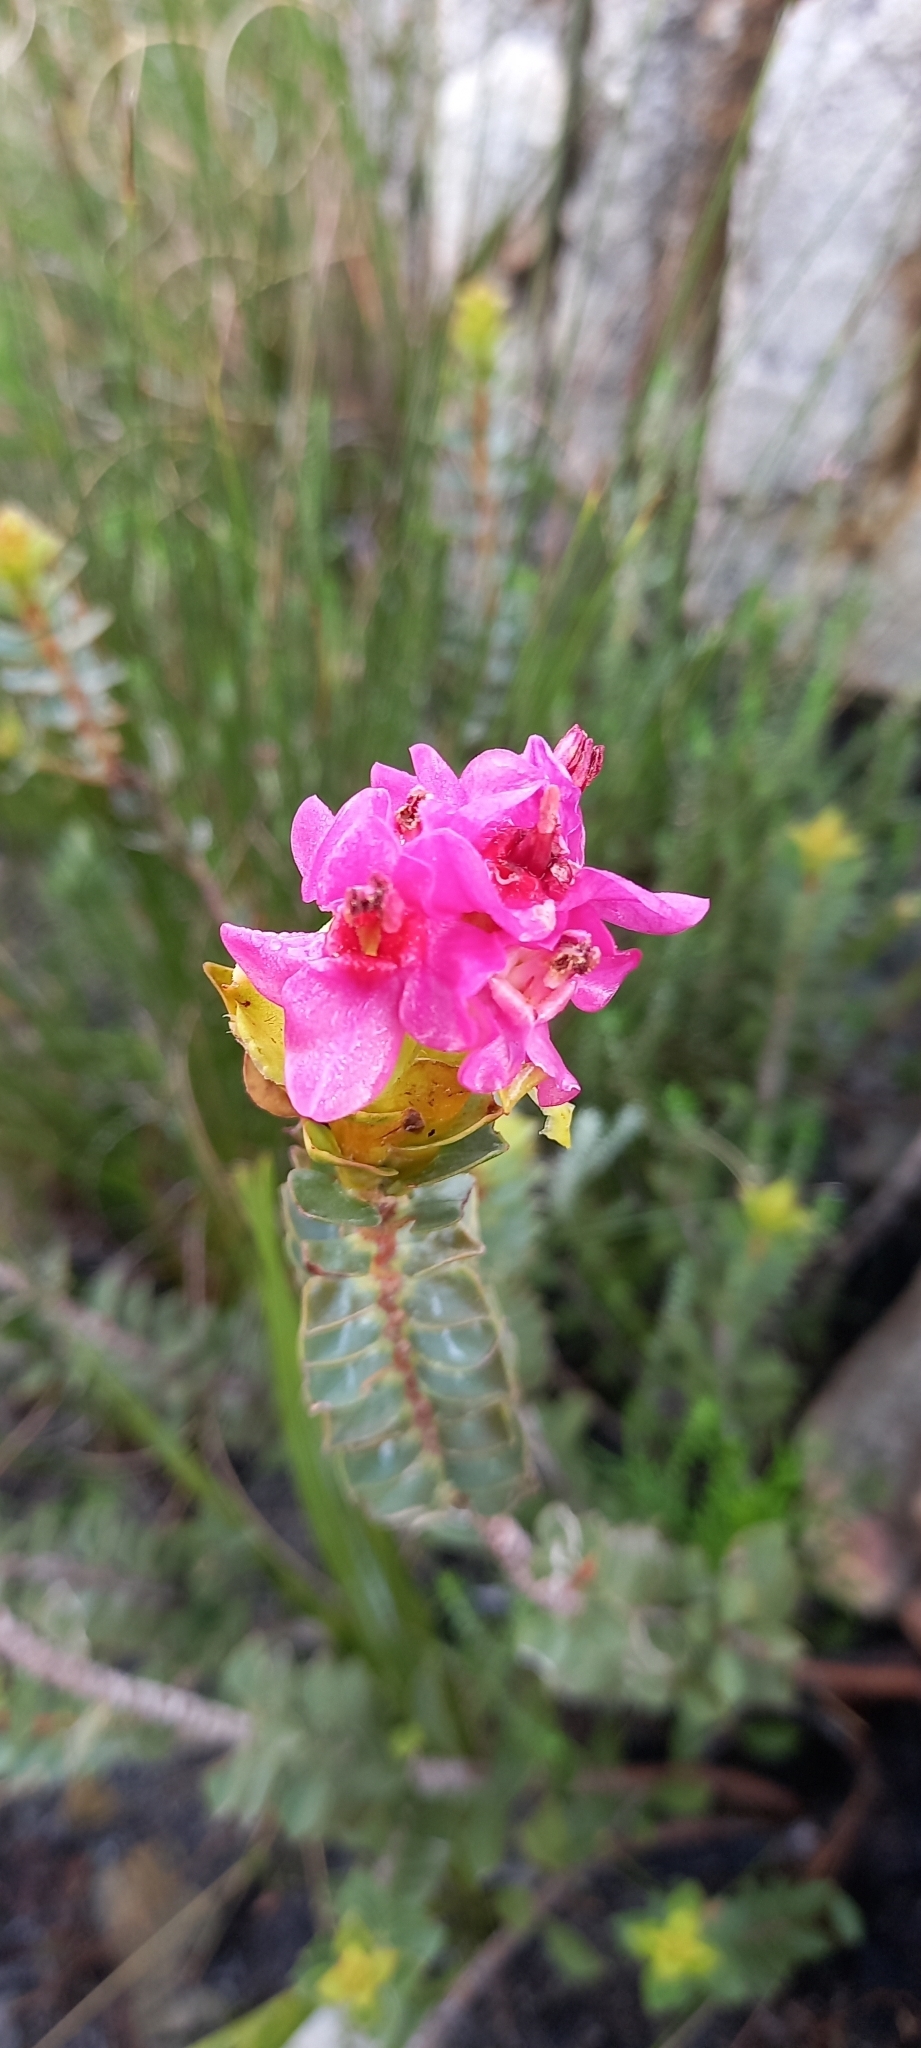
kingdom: Plantae
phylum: Tracheophyta
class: Magnoliopsida
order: Myrtales
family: Penaeaceae
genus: Saltera
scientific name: Saltera sarcocolla
